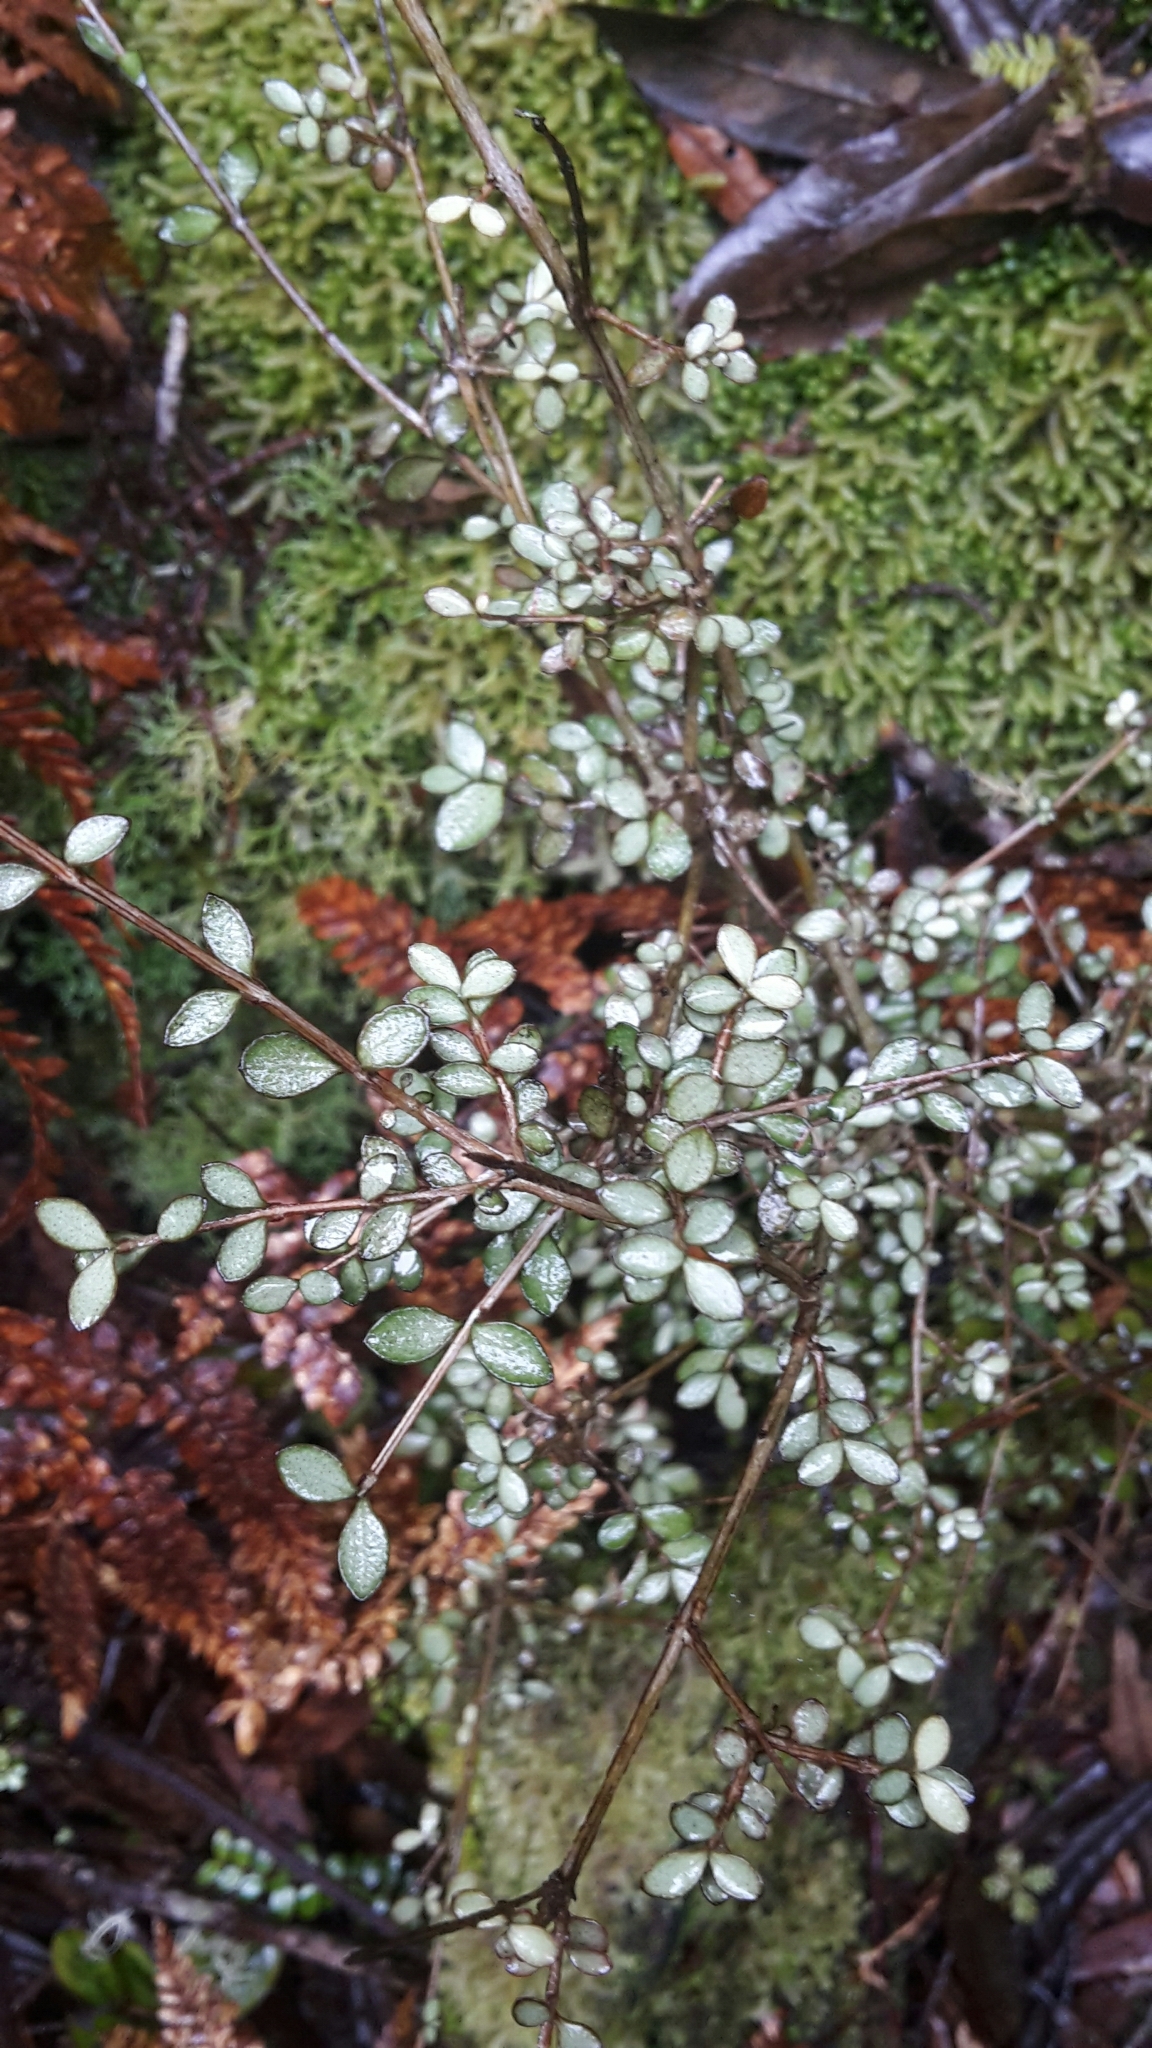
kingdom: Plantae
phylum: Tracheophyta
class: Magnoliopsida
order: Myrtales
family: Myrtaceae
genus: Neomyrtus
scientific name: Neomyrtus pedunculata
